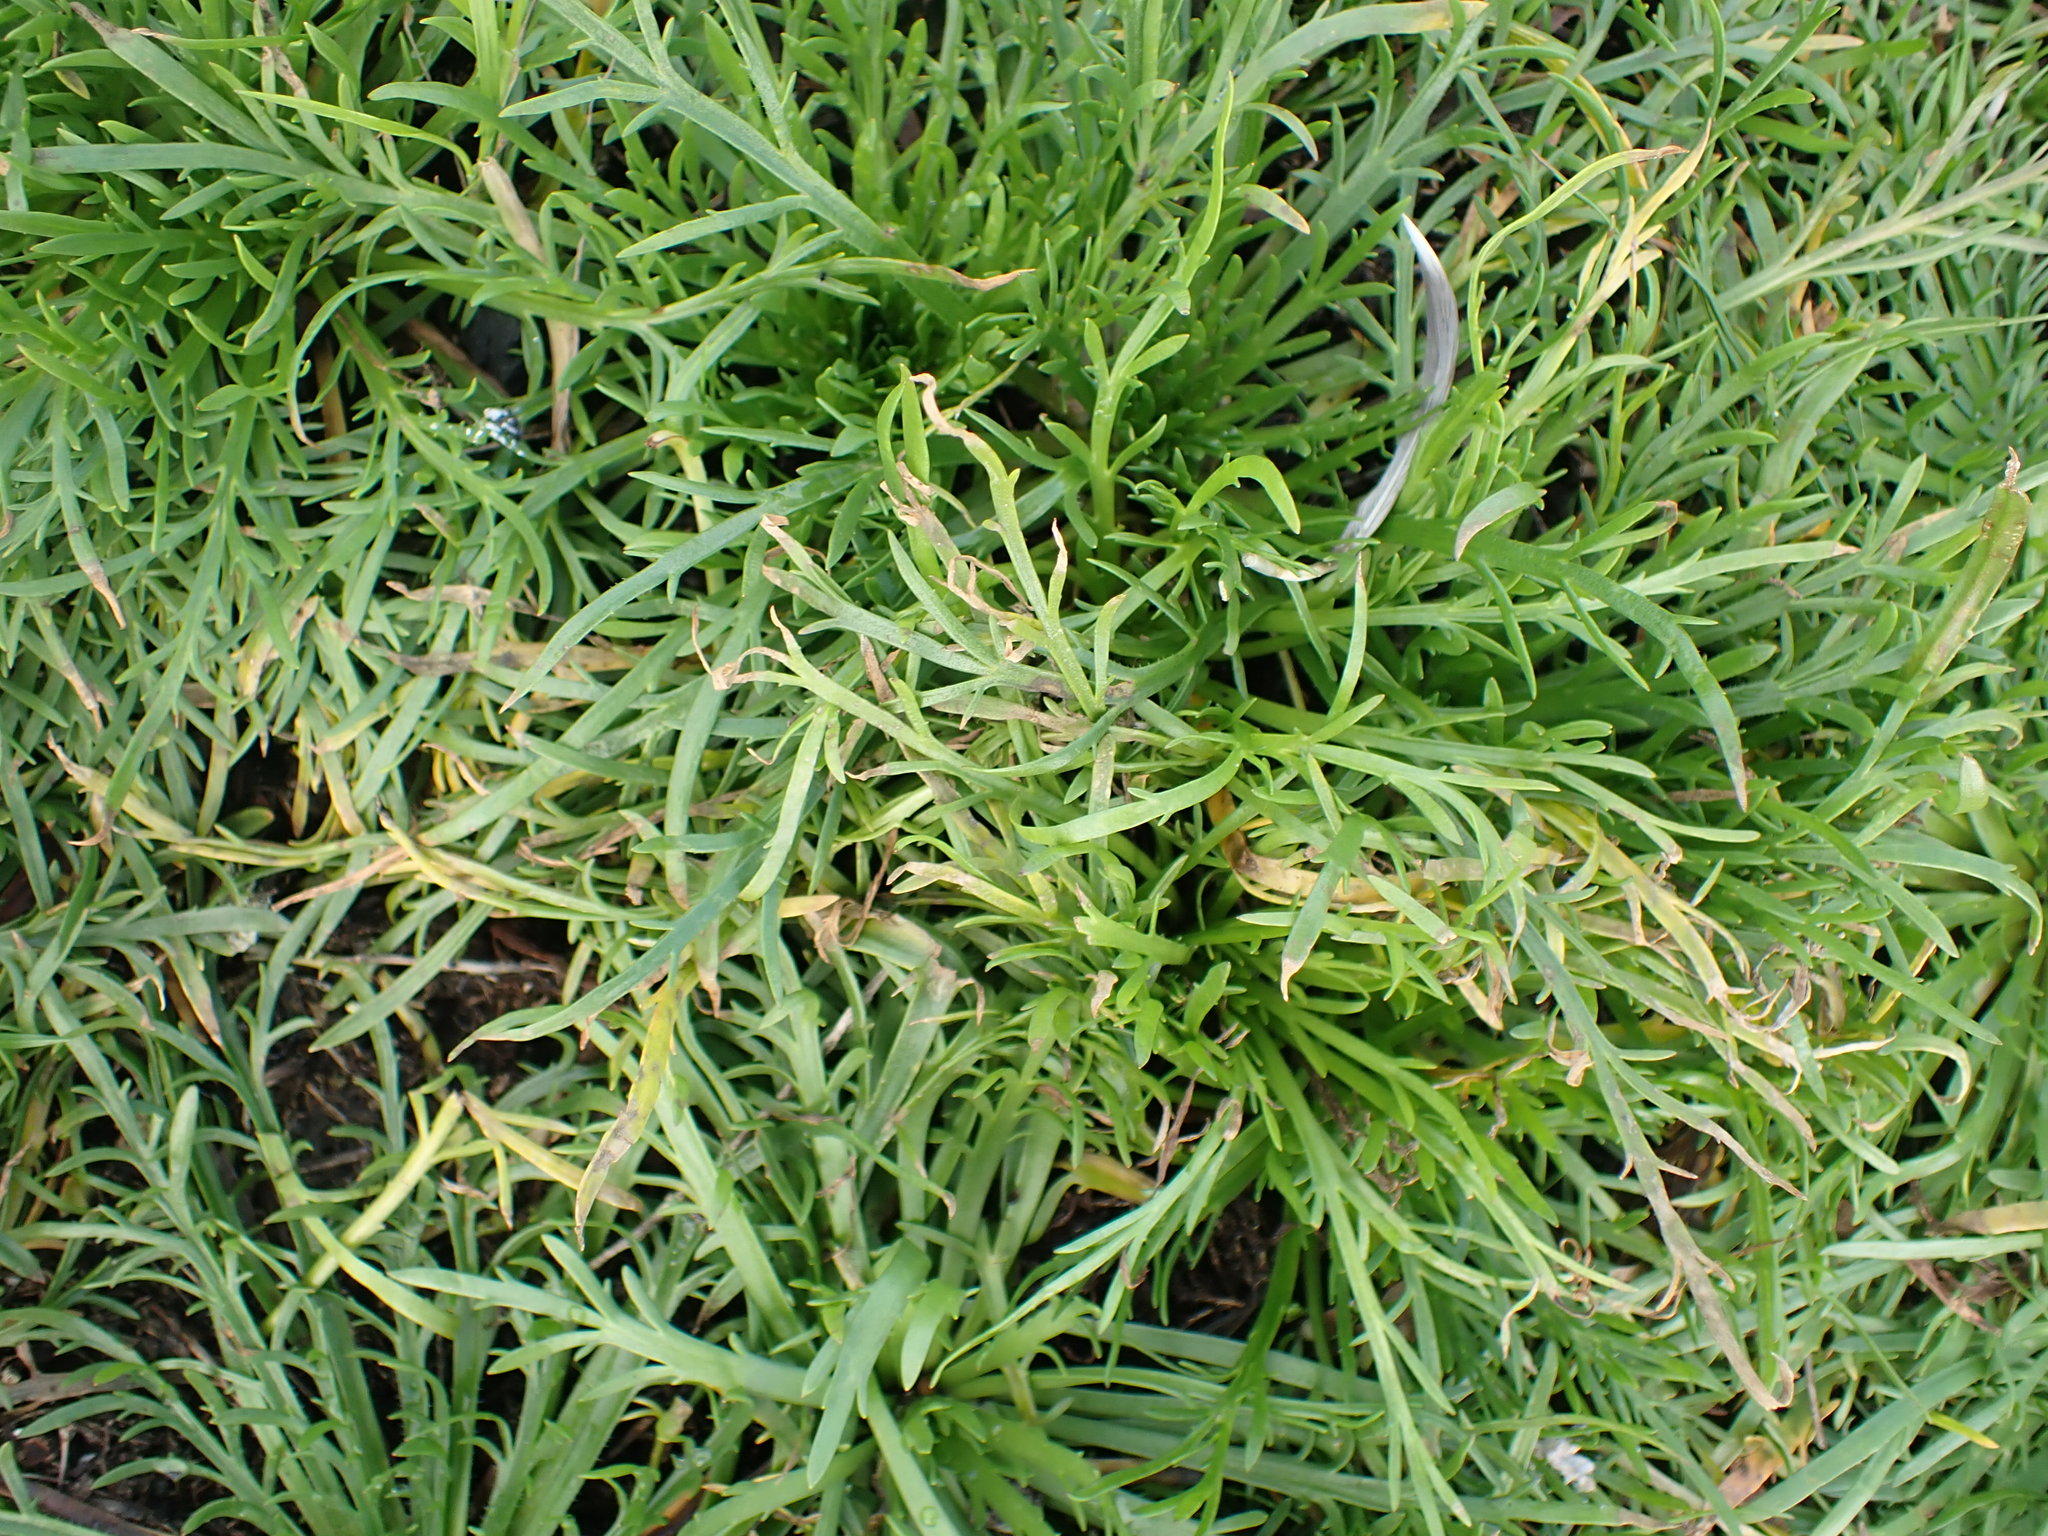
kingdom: Plantae
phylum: Tracheophyta
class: Magnoliopsida
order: Lamiales
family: Plantaginaceae
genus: Plantago
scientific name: Plantago coronopus
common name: Buck's-horn plantain
